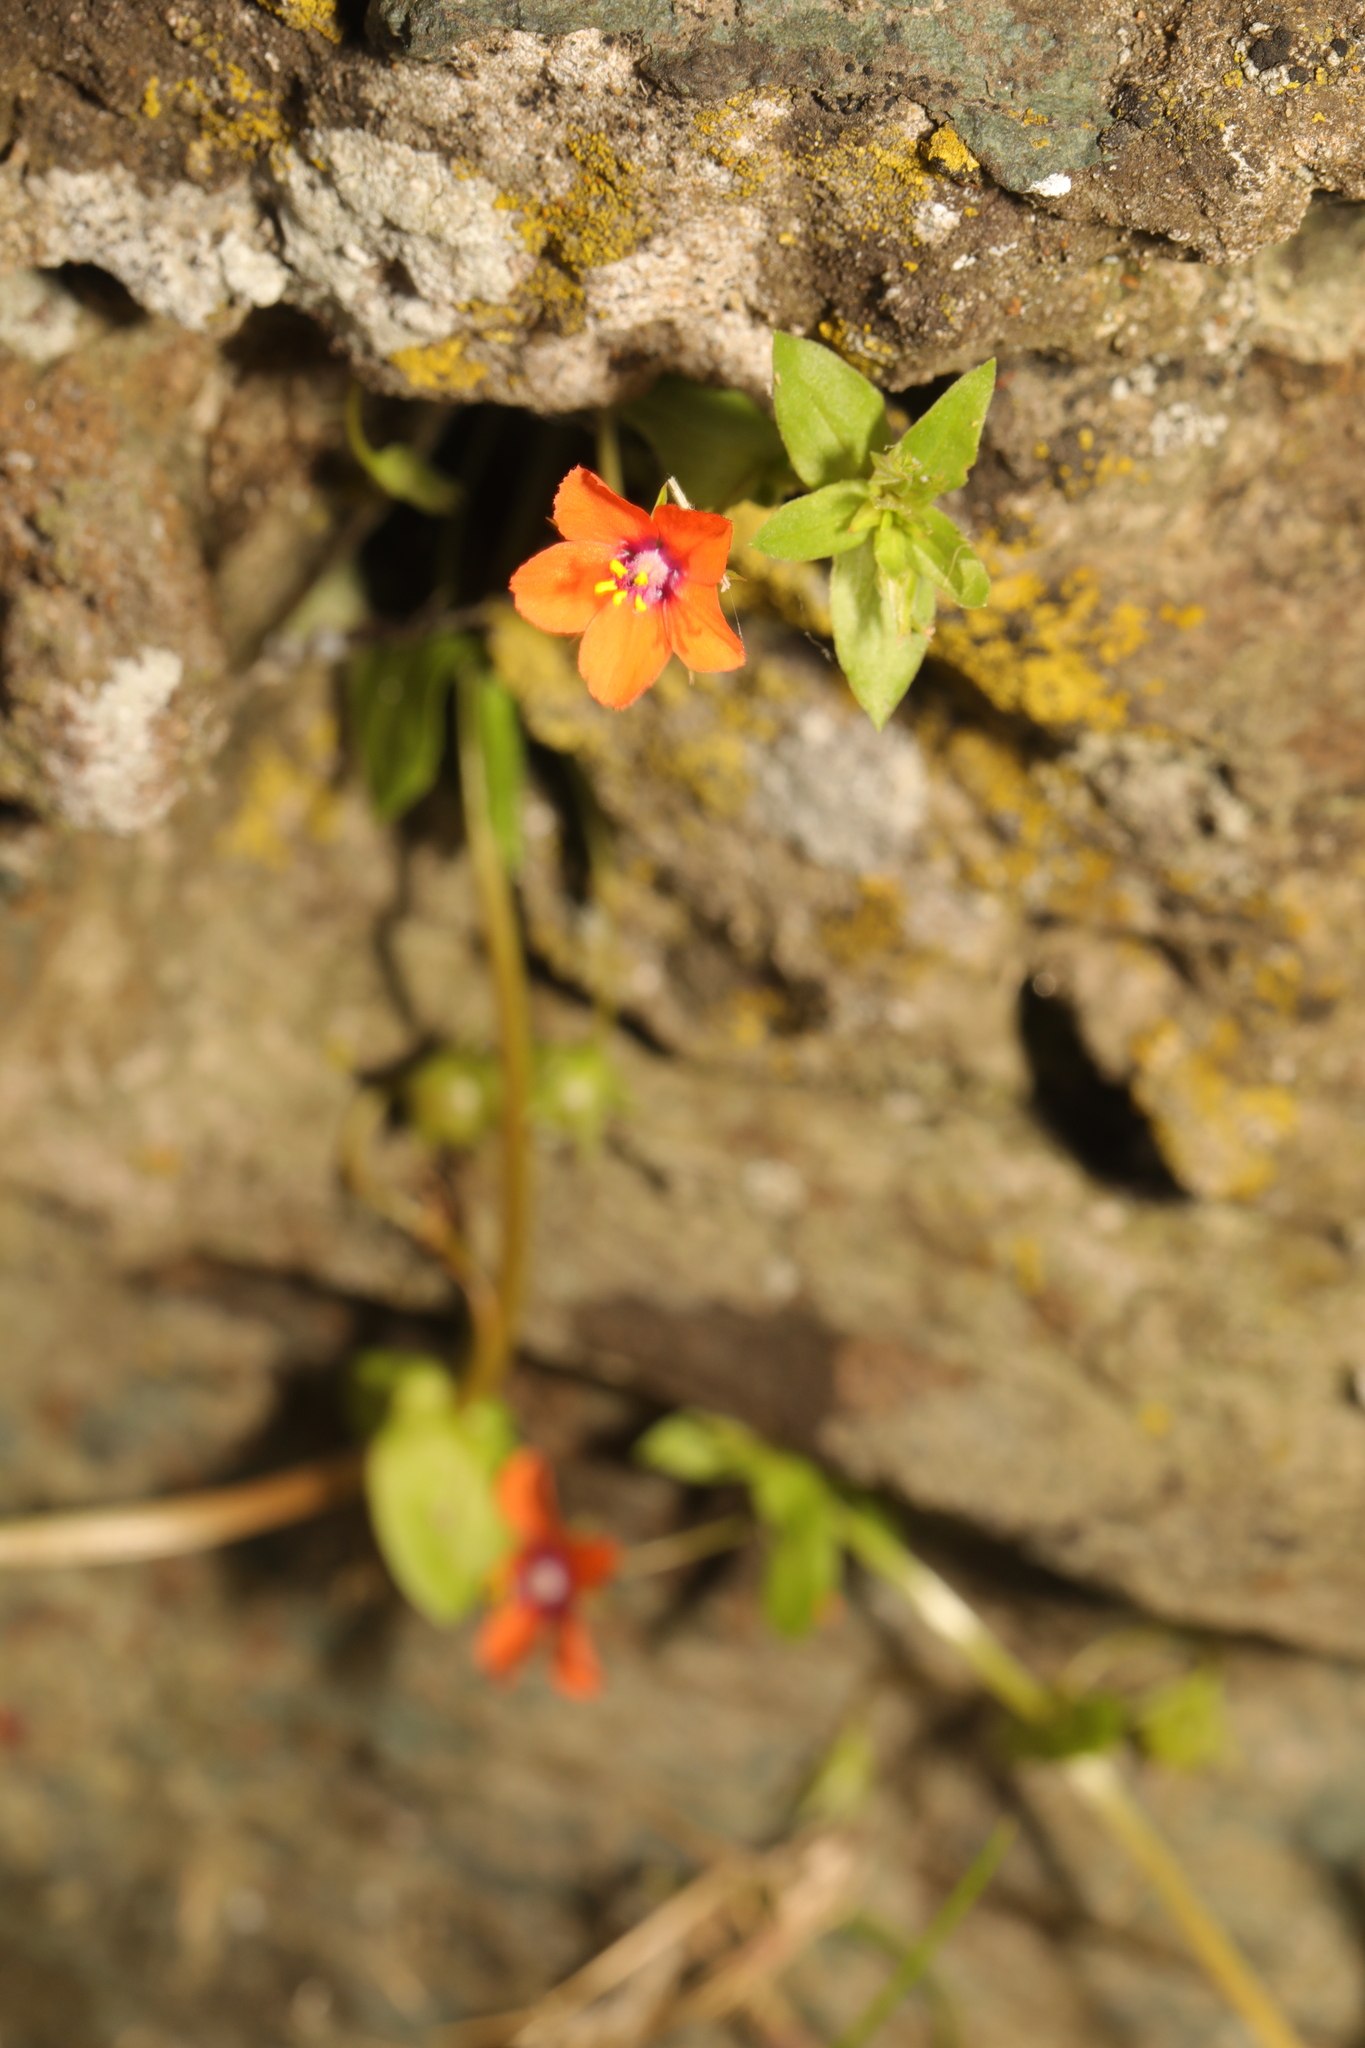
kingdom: Plantae
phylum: Tracheophyta
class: Magnoliopsida
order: Ericales
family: Primulaceae
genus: Lysimachia
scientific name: Lysimachia arvensis
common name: Scarlet pimpernel
